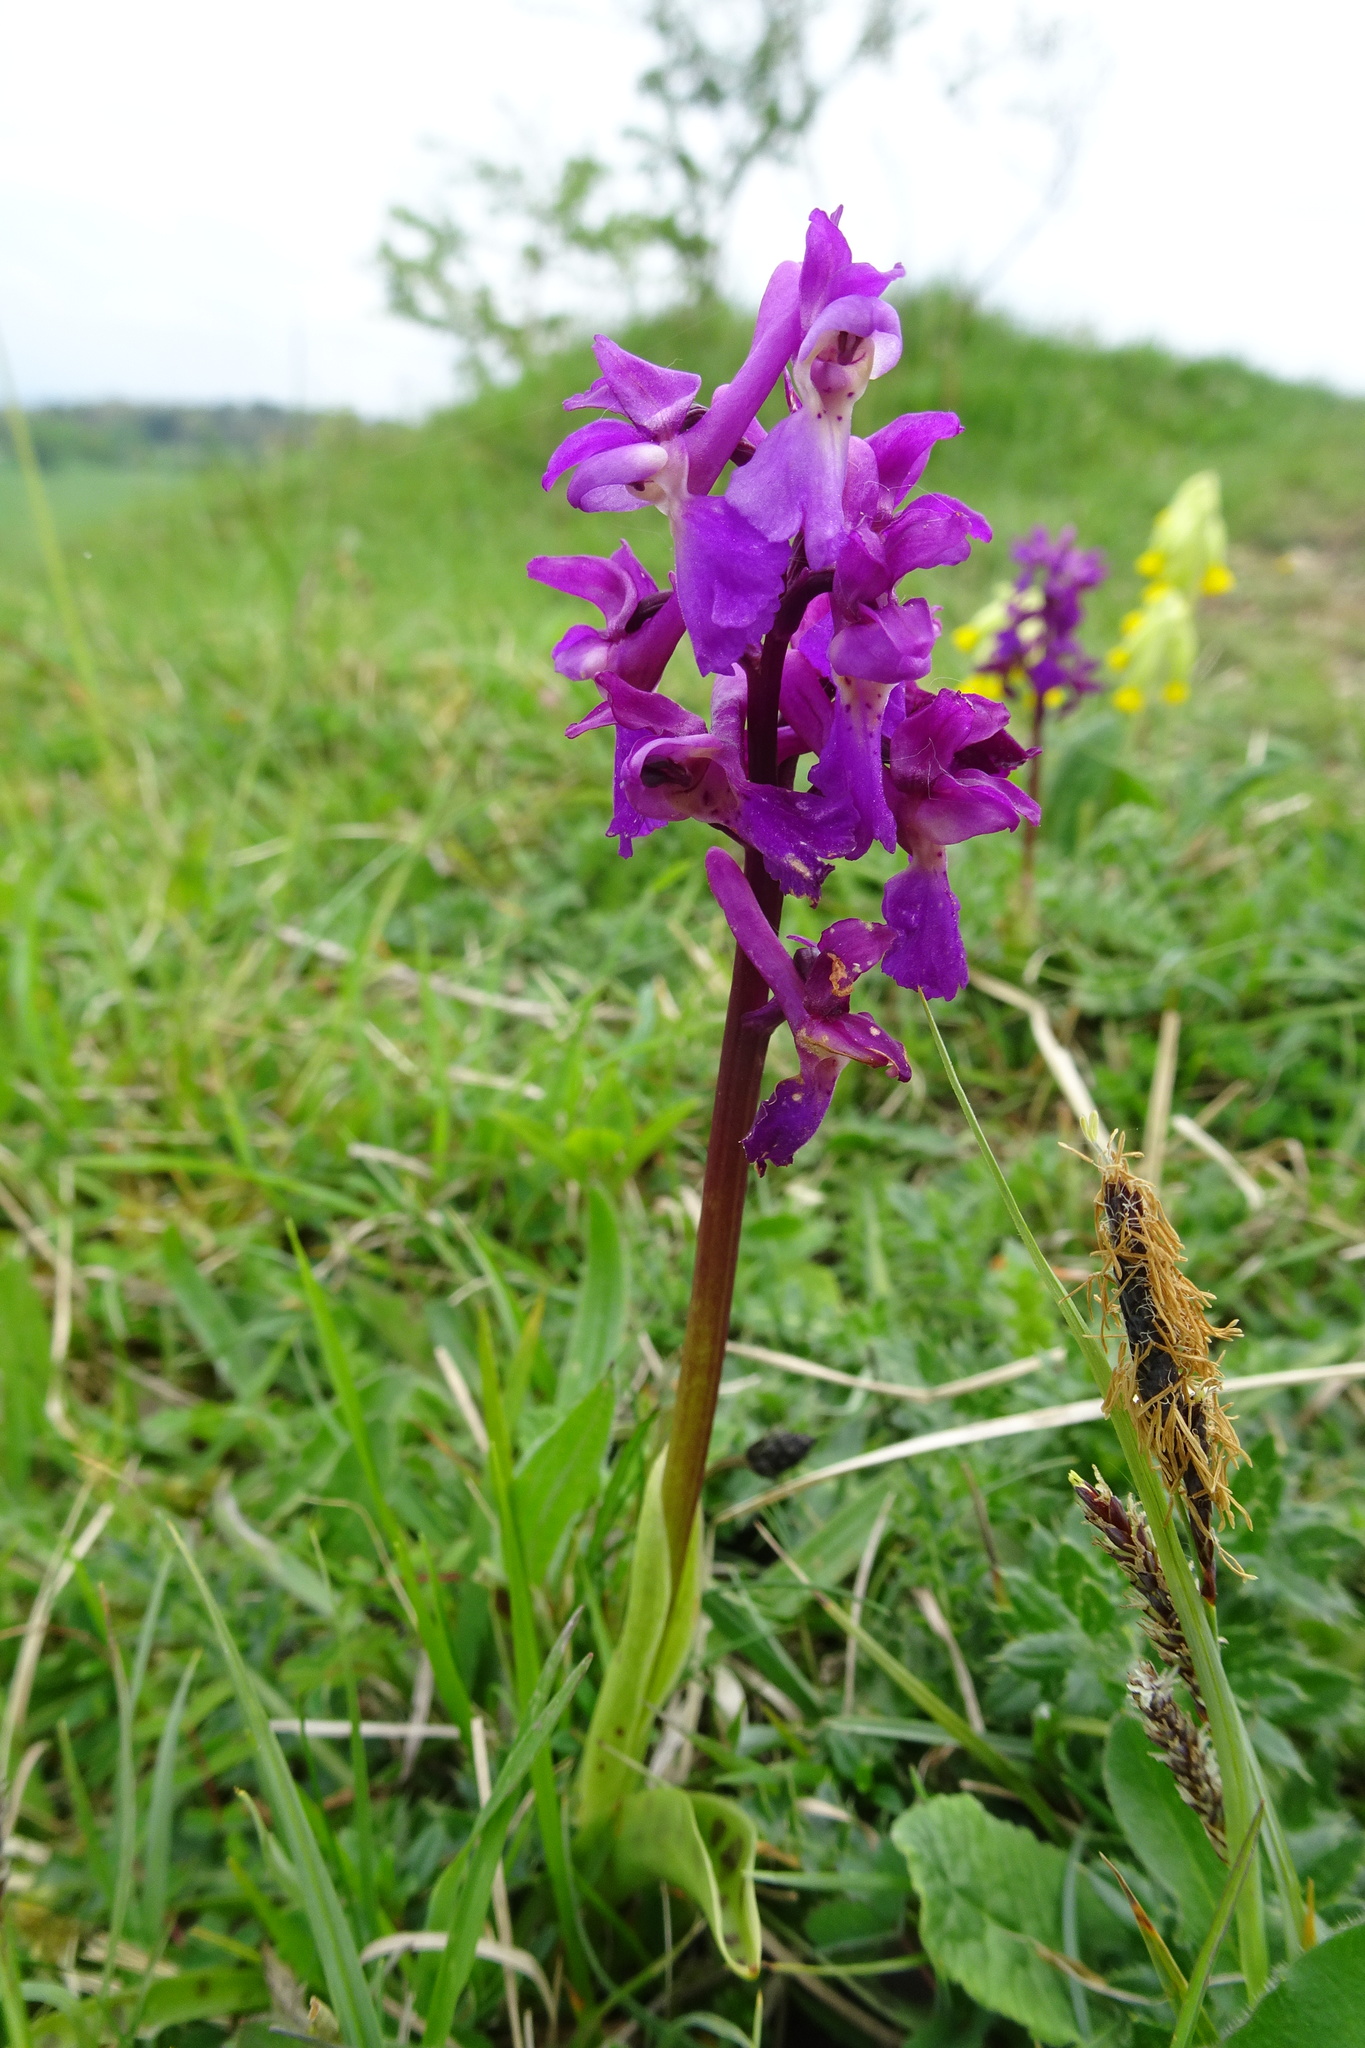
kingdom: Plantae
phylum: Tracheophyta
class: Liliopsida
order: Asparagales
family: Orchidaceae
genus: Orchis
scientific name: Orchis mascula
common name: Early-purple orchid
